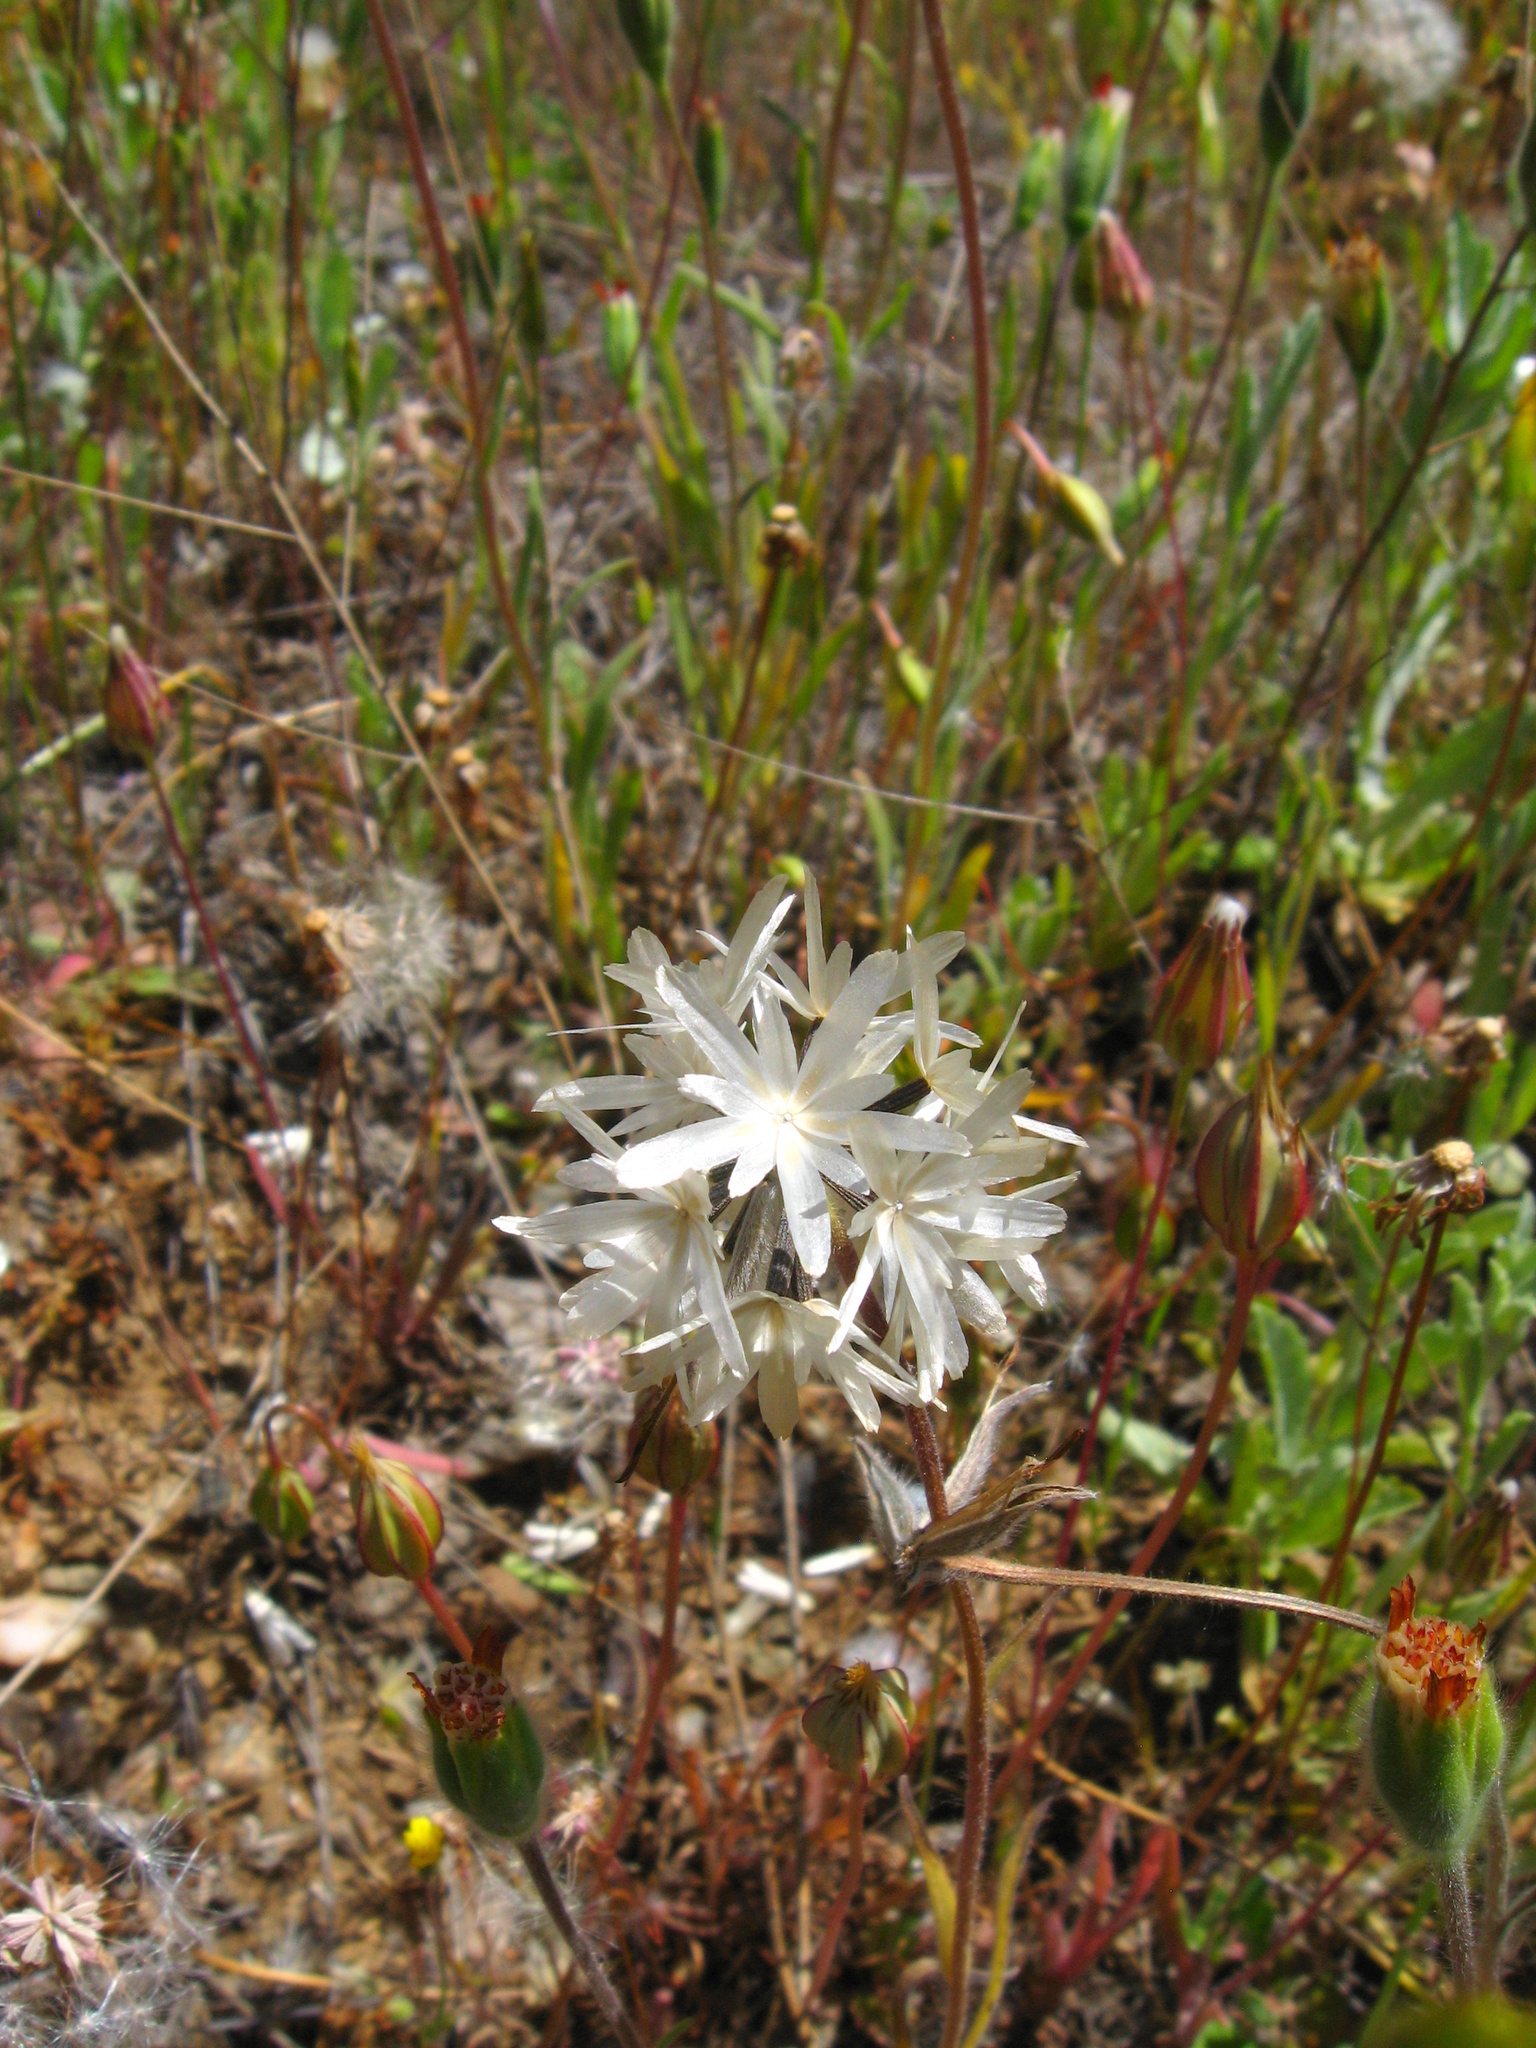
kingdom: Plantae
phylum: Tracheophyta
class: Magnoliopsida
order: Asterales
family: Asteraceae
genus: Achyrachaena
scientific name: Achyrachaena mollis
